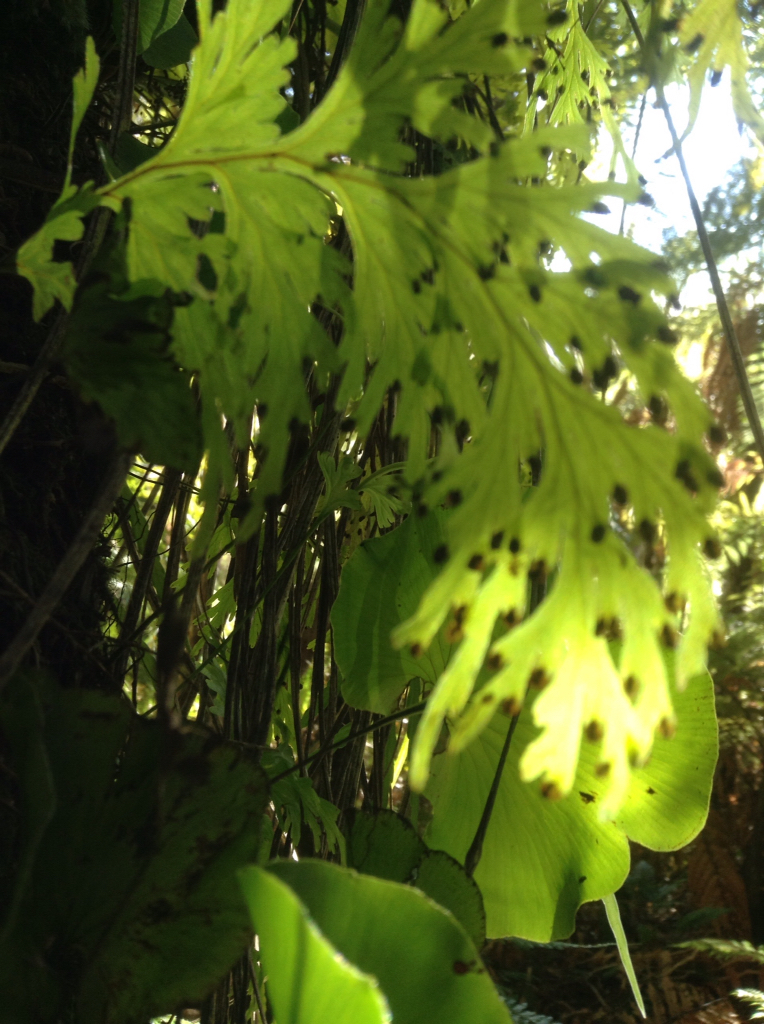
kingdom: Plantae
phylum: Tracheophyta
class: Polypodiopsida
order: Hymenophyllales
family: Hymenophyllaceae
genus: Hymenophyllum
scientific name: Hymenophyllum dilatatum
